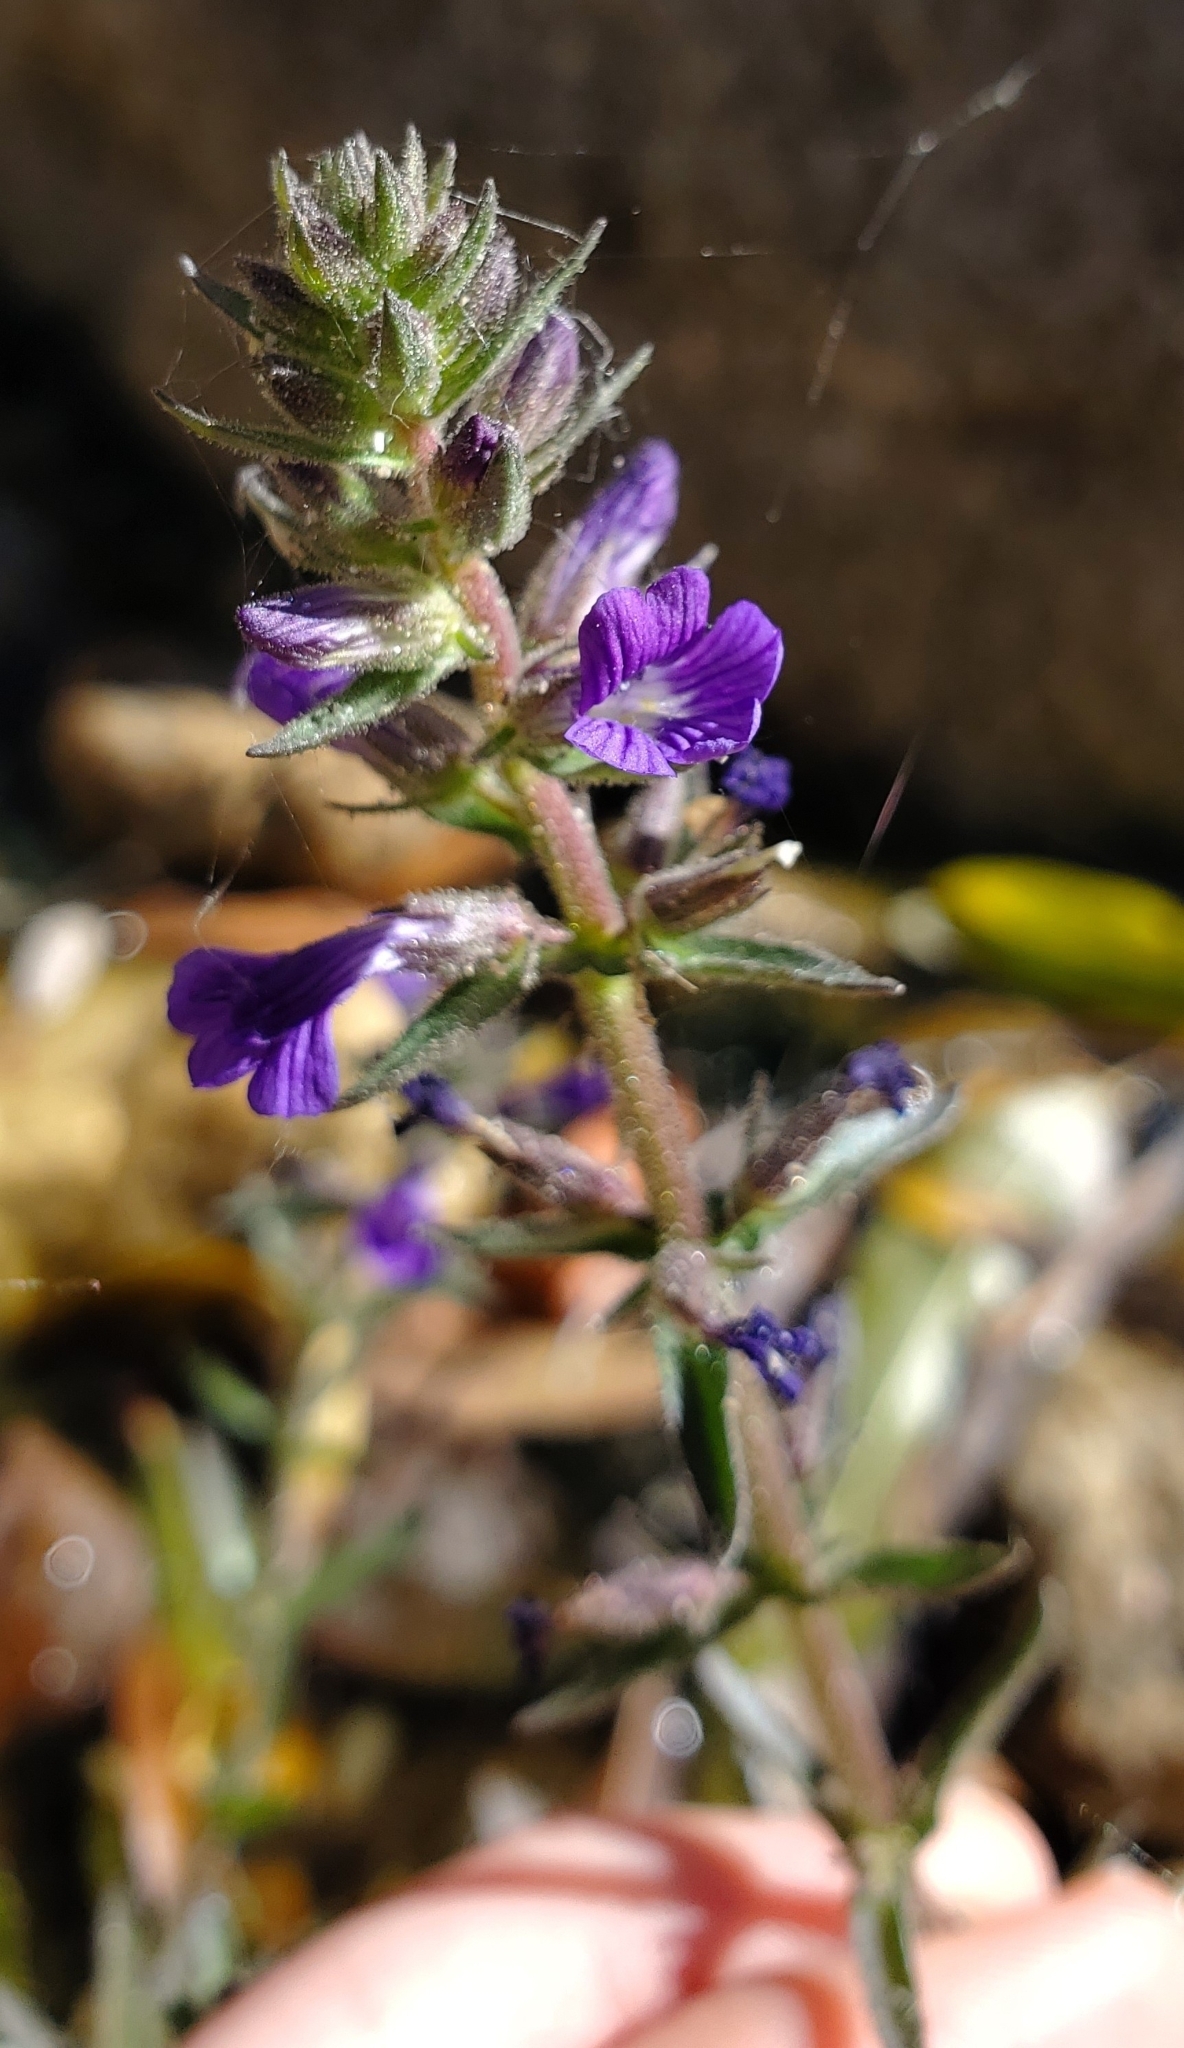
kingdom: Plantae
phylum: Tracheophyta
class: Magnoliopsida
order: Lamiales
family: Plantaginaceae
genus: Stemodia
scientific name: Stemodia durantifolia
